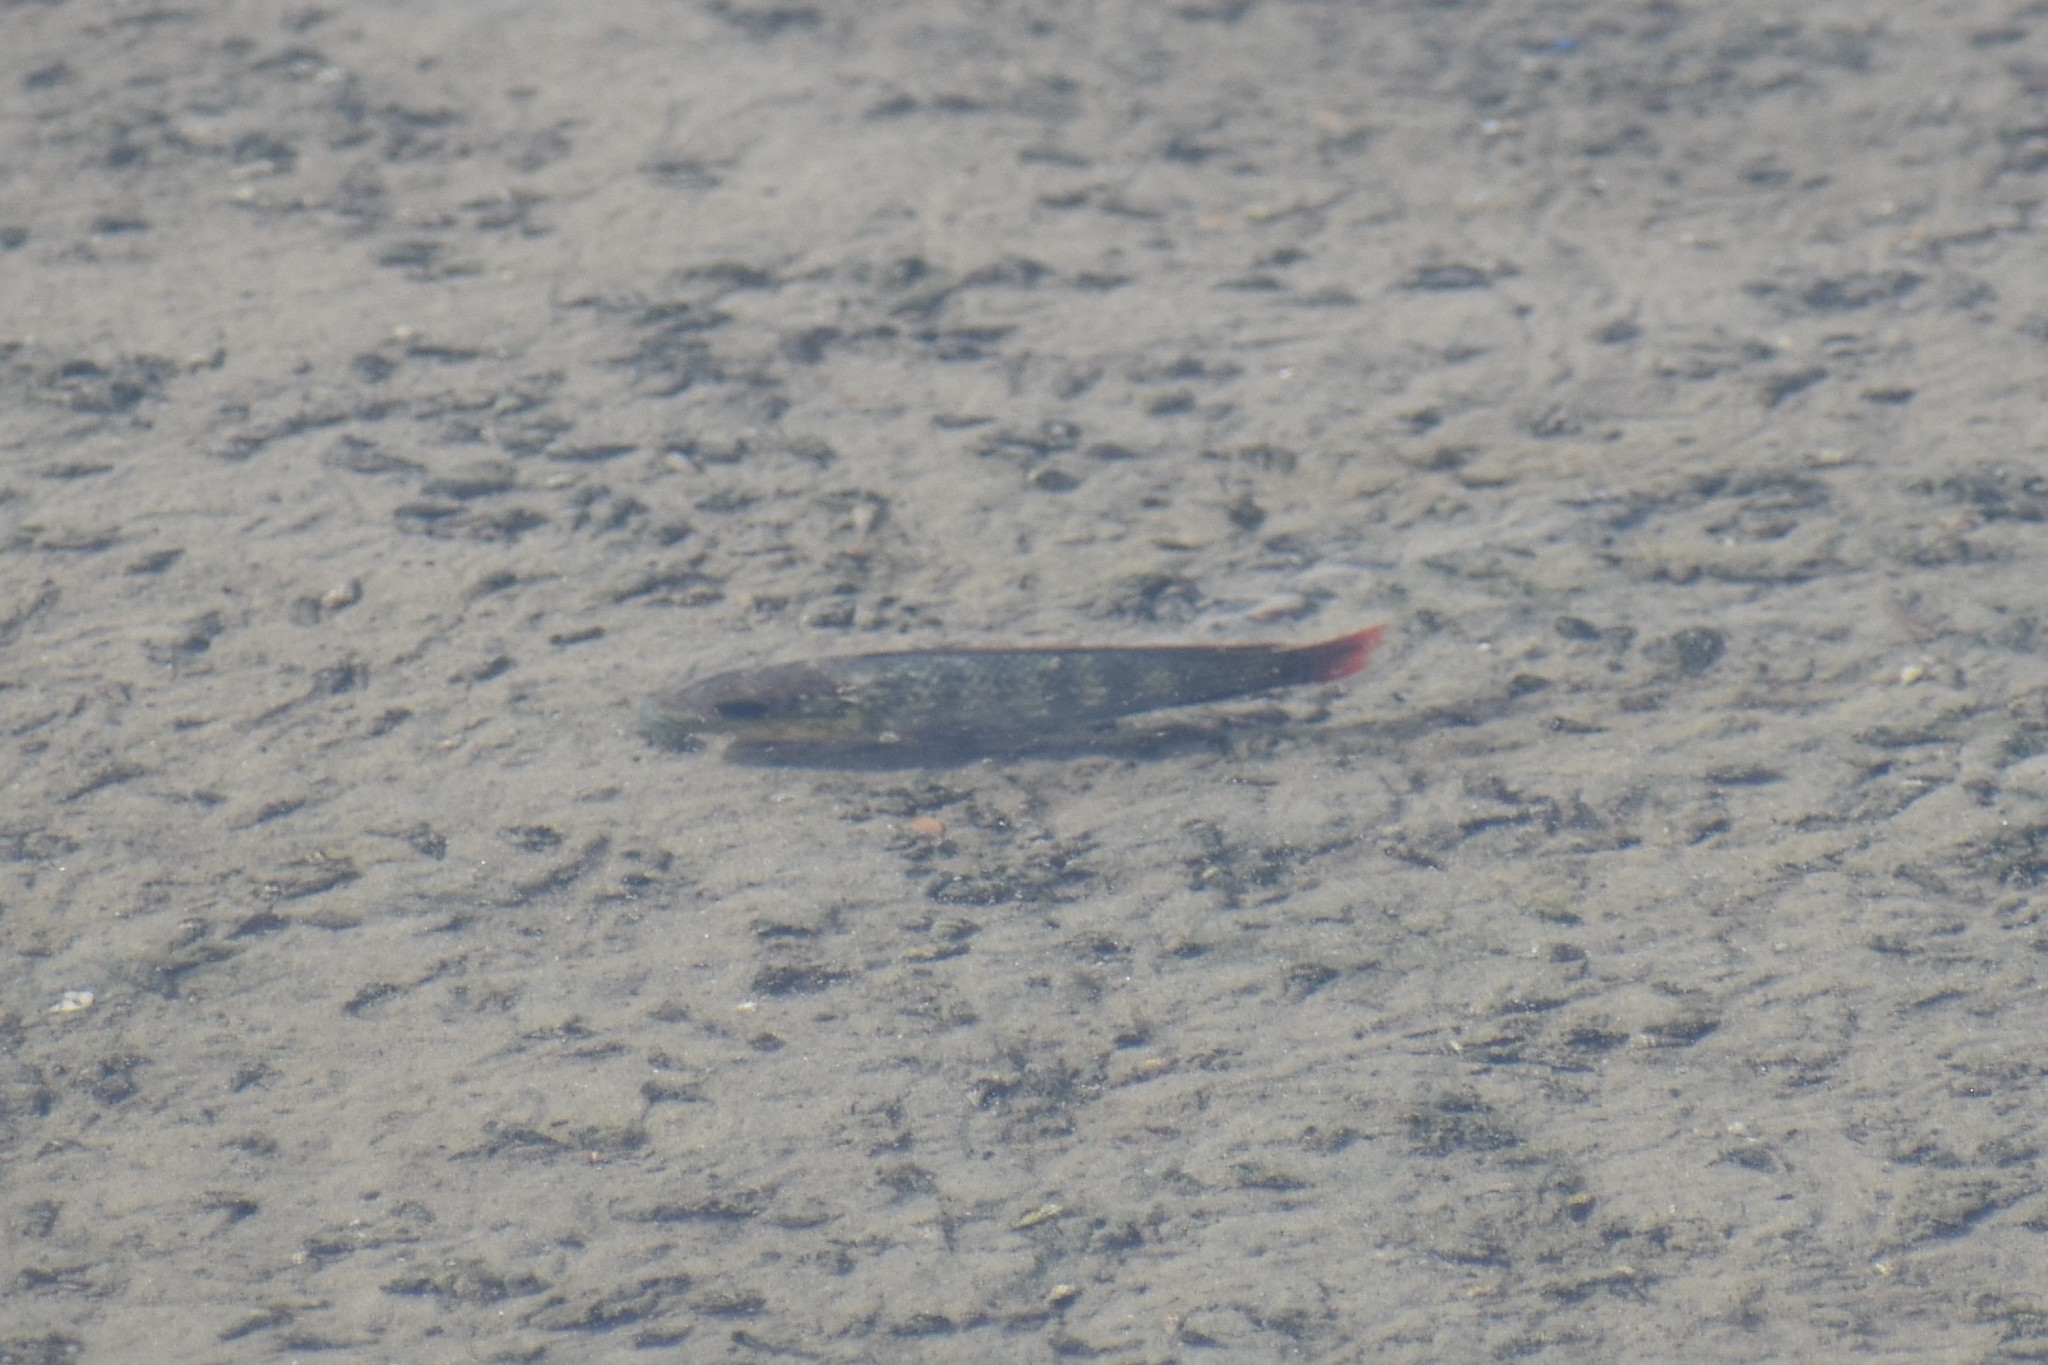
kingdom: Animalia
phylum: Chordata
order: Perciformes
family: Cichlidae
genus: Oreochromis
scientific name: Oreochromis mossambicus
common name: Mozambique tilapia
